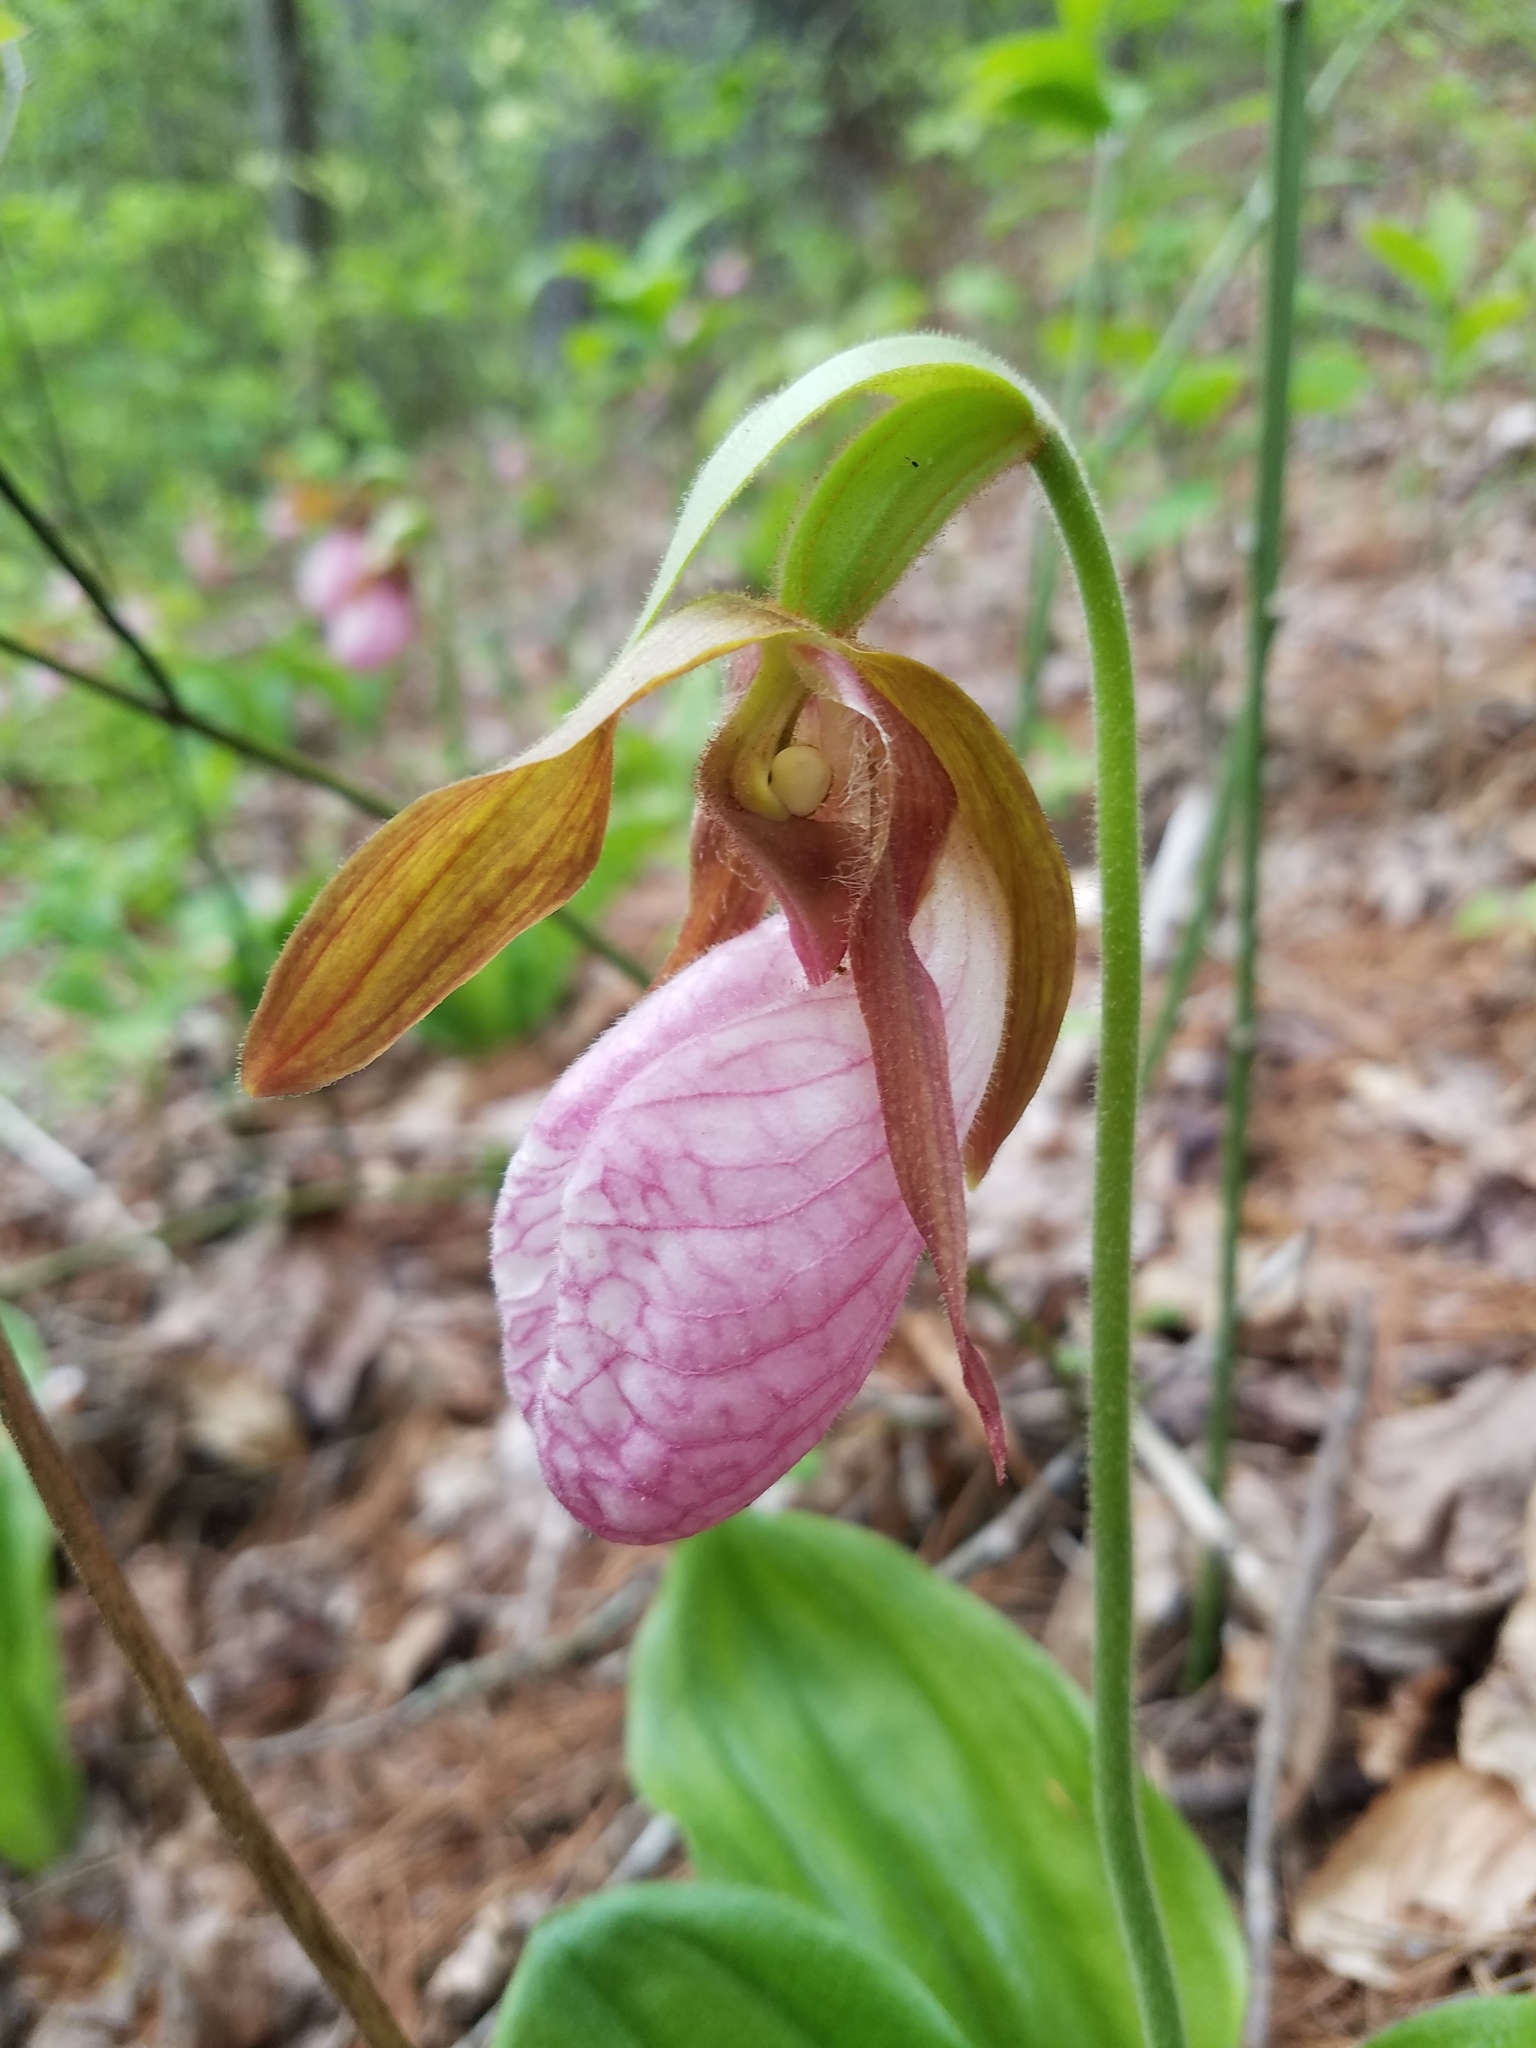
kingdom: Plantae
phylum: Tracheophyta
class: Liliopsida
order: Asparagales
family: Orchidaceae
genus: Cypripedium
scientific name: Cypripedium acaule
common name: Pink lady's-slipper
